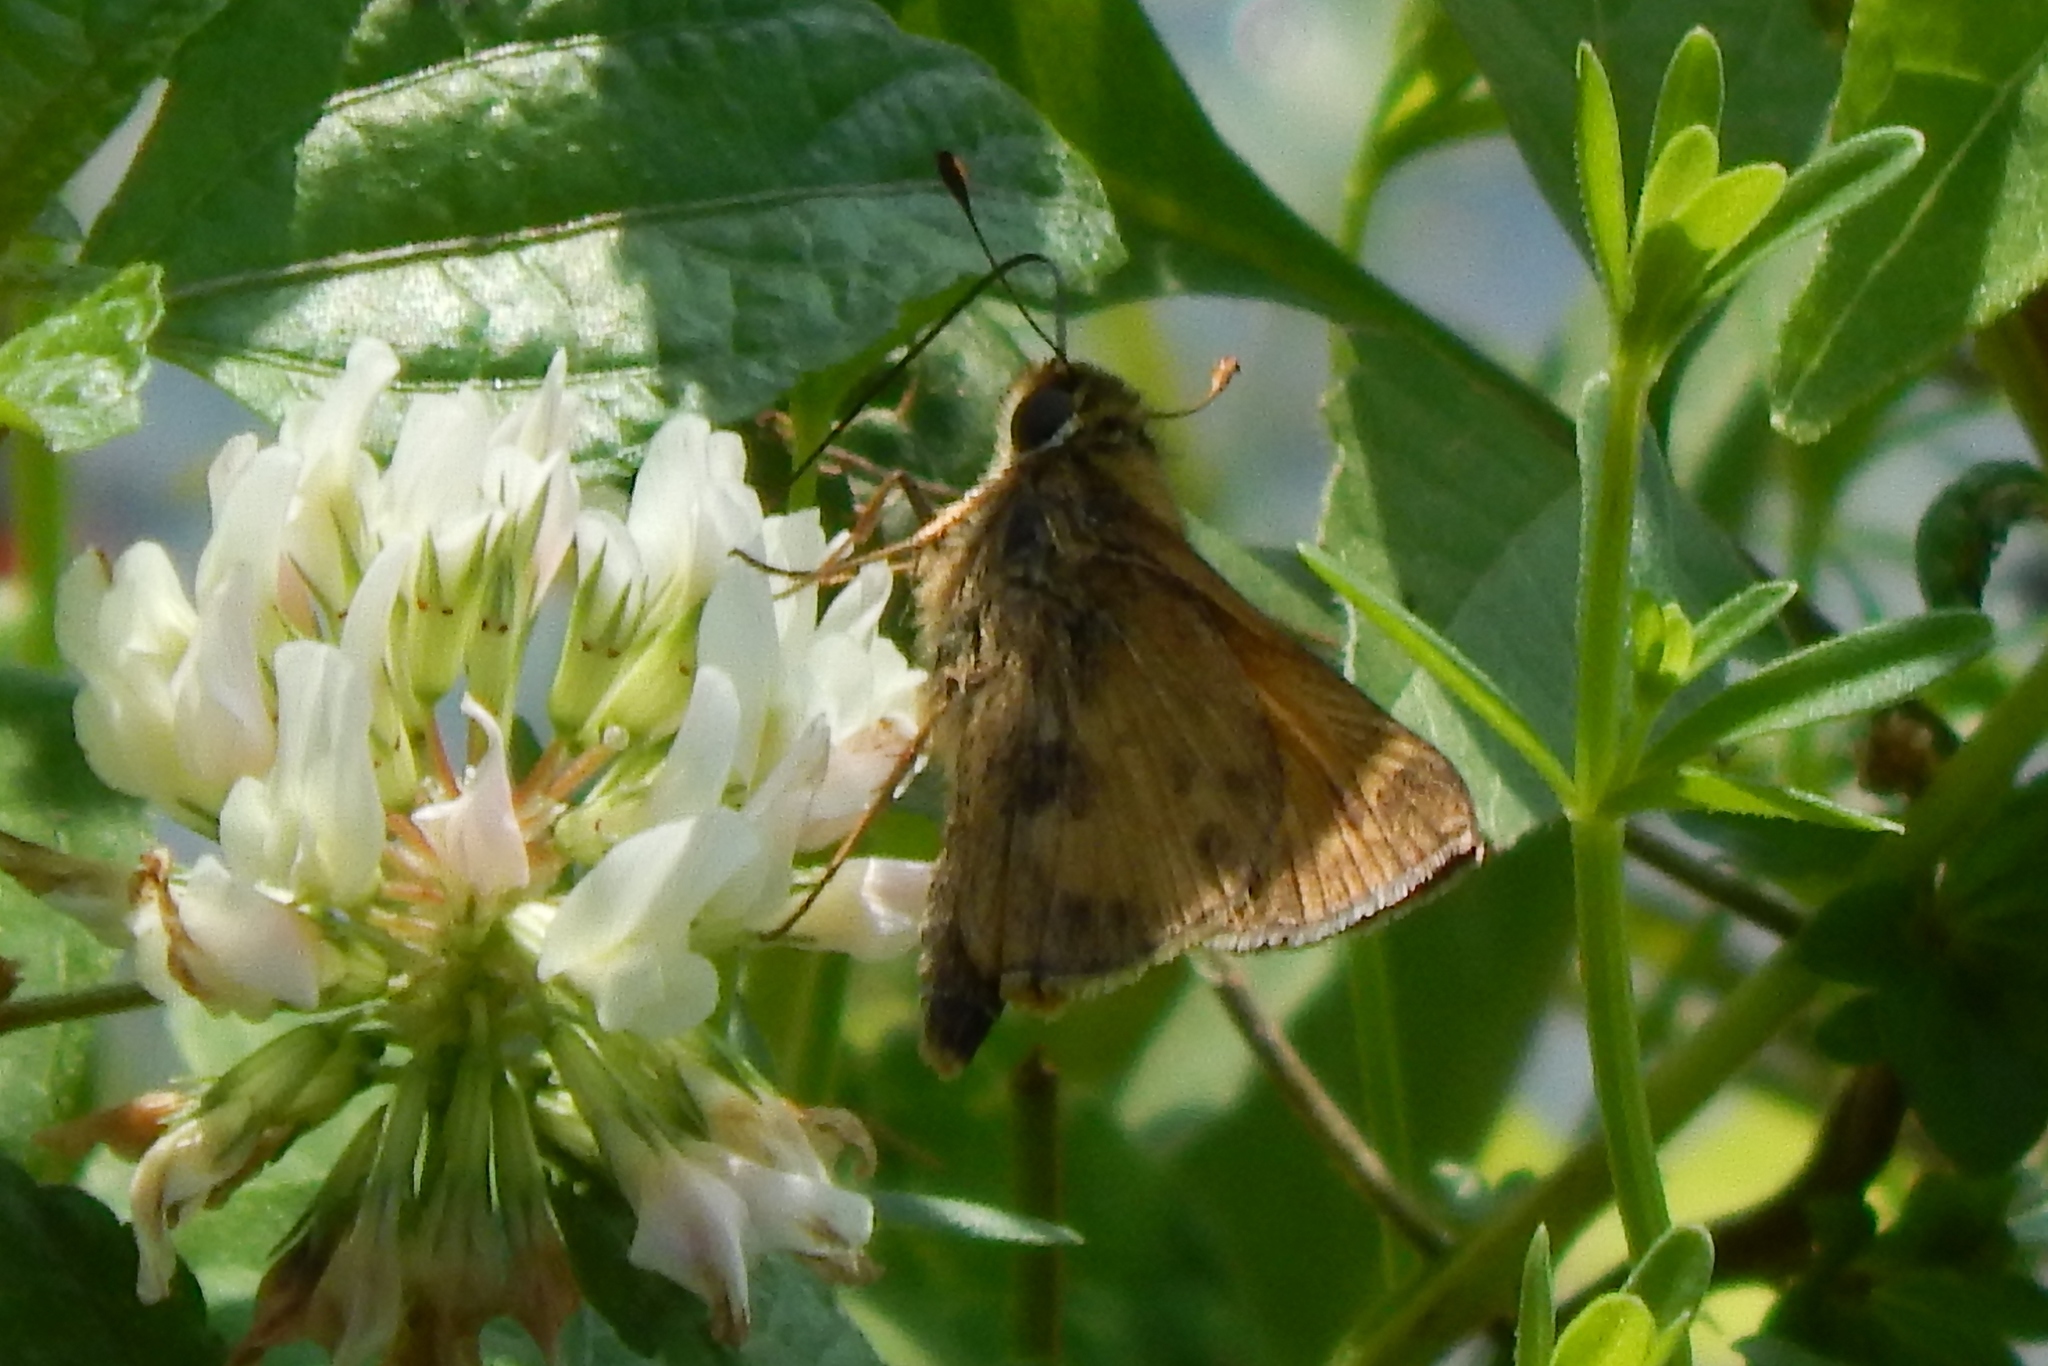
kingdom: Animalia
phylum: Arthropoda
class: Insecta
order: Lepidoptera
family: Hesperiidae
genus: Atalopedes
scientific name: Atalopedes
